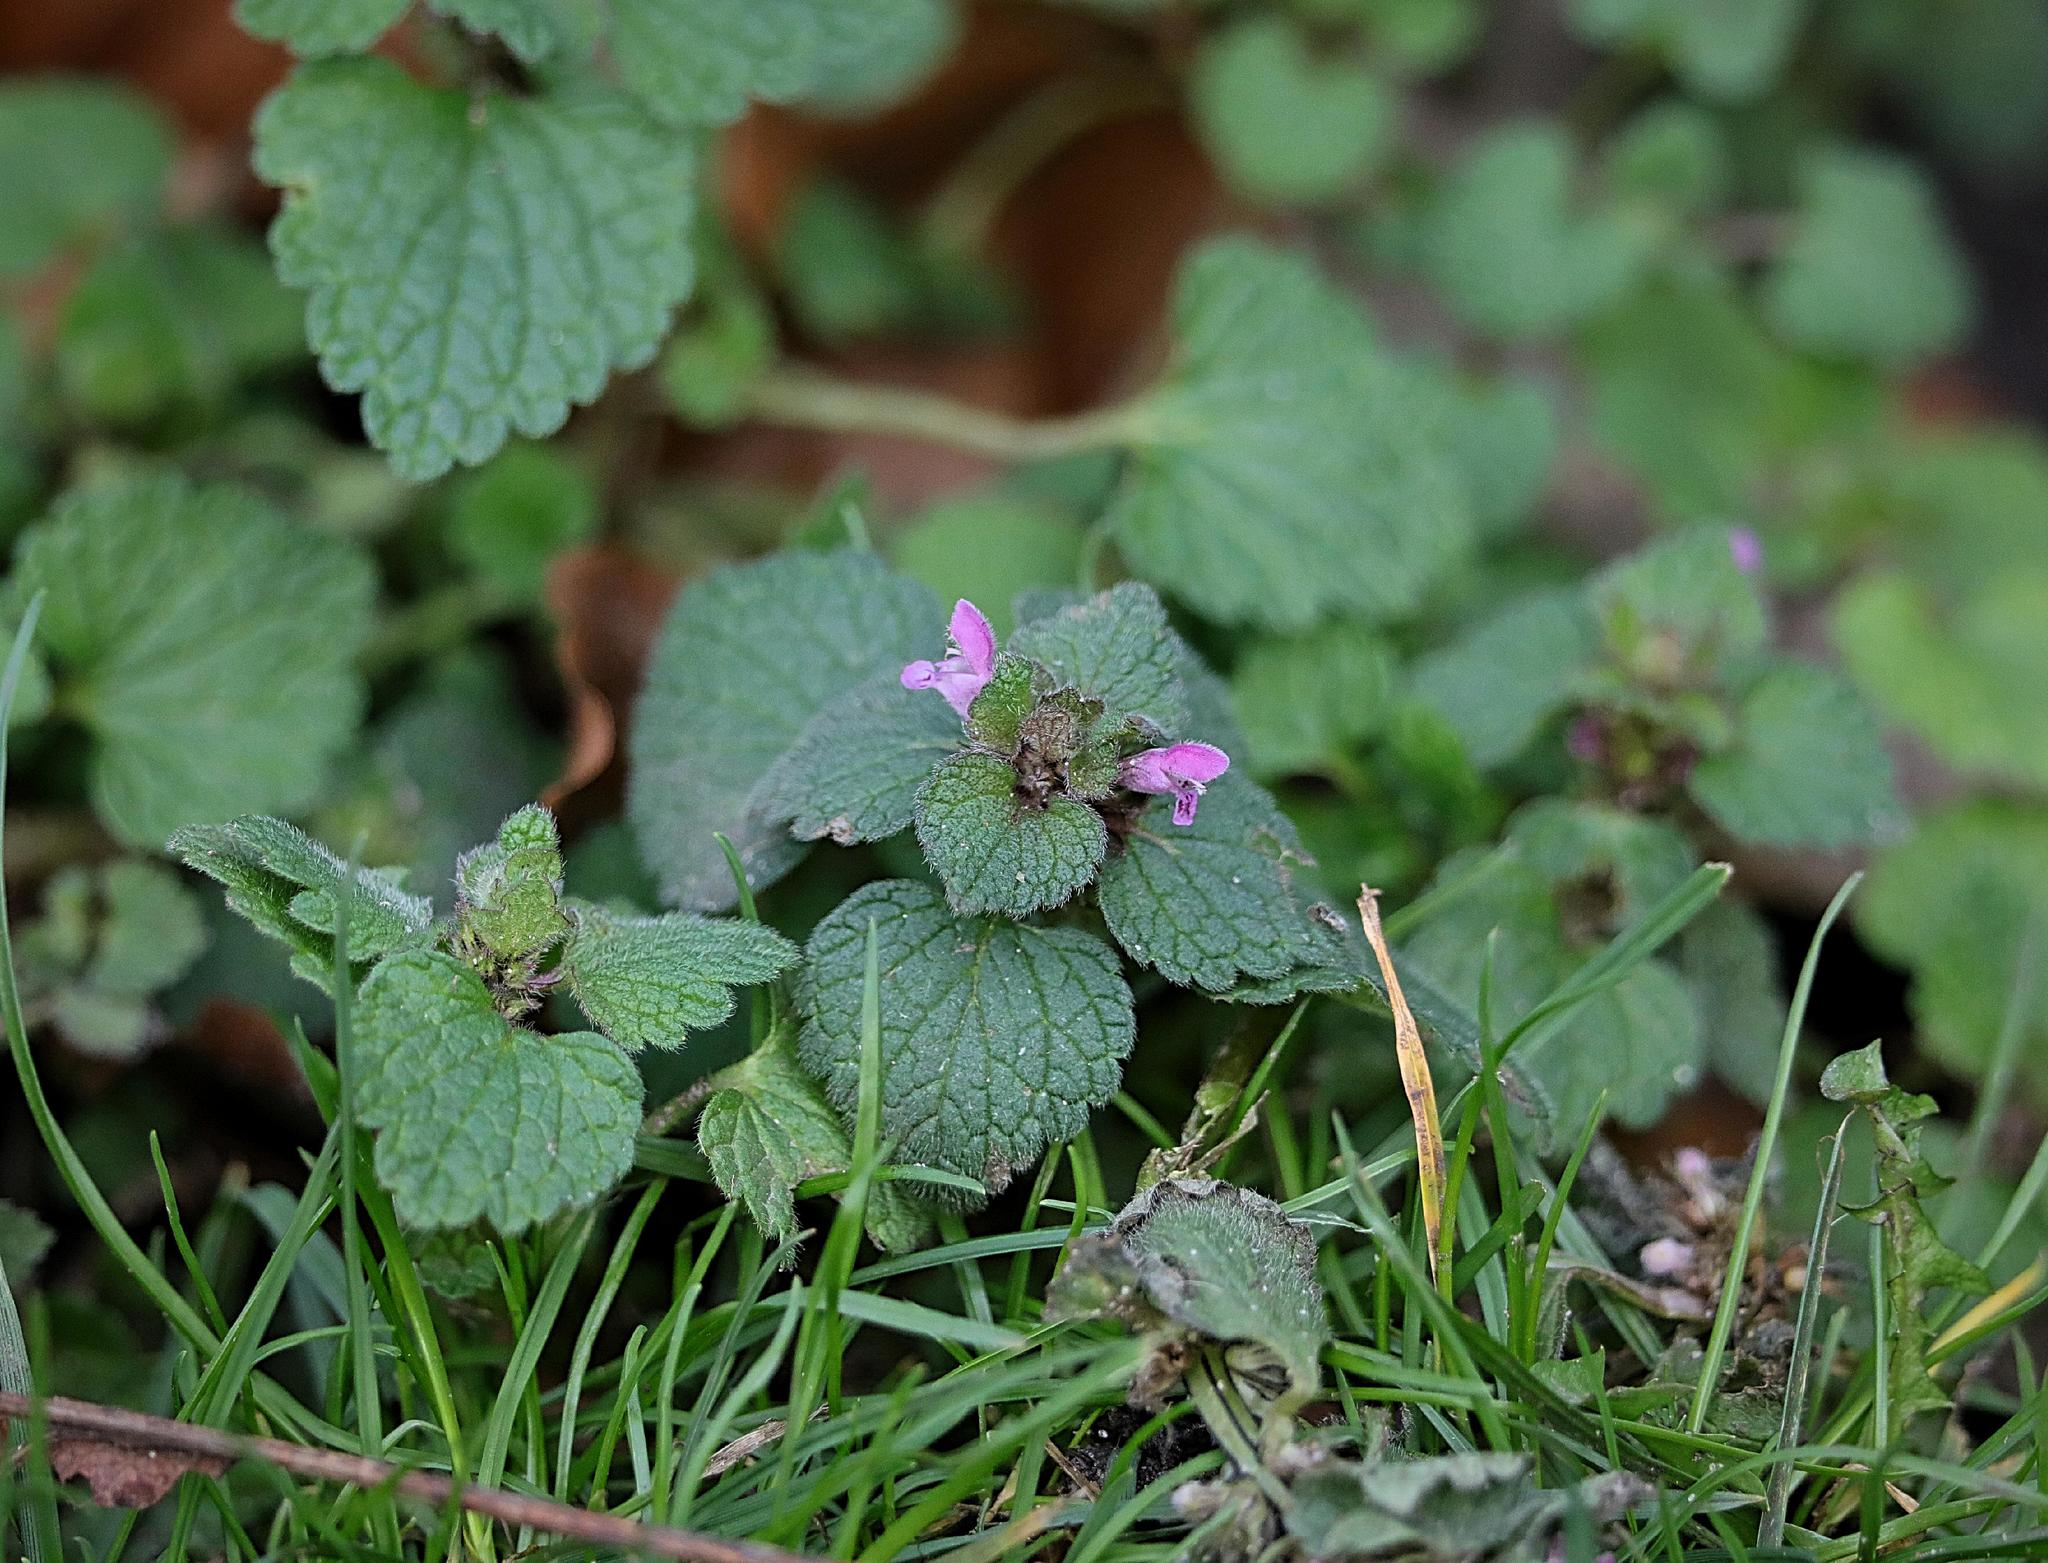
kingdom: Plantae
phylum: Tracheophyta
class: Magnoliopsida
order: Lamiales
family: Lamiaceae
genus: Lamium
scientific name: Lamium purpureum
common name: Red dead-nettle
